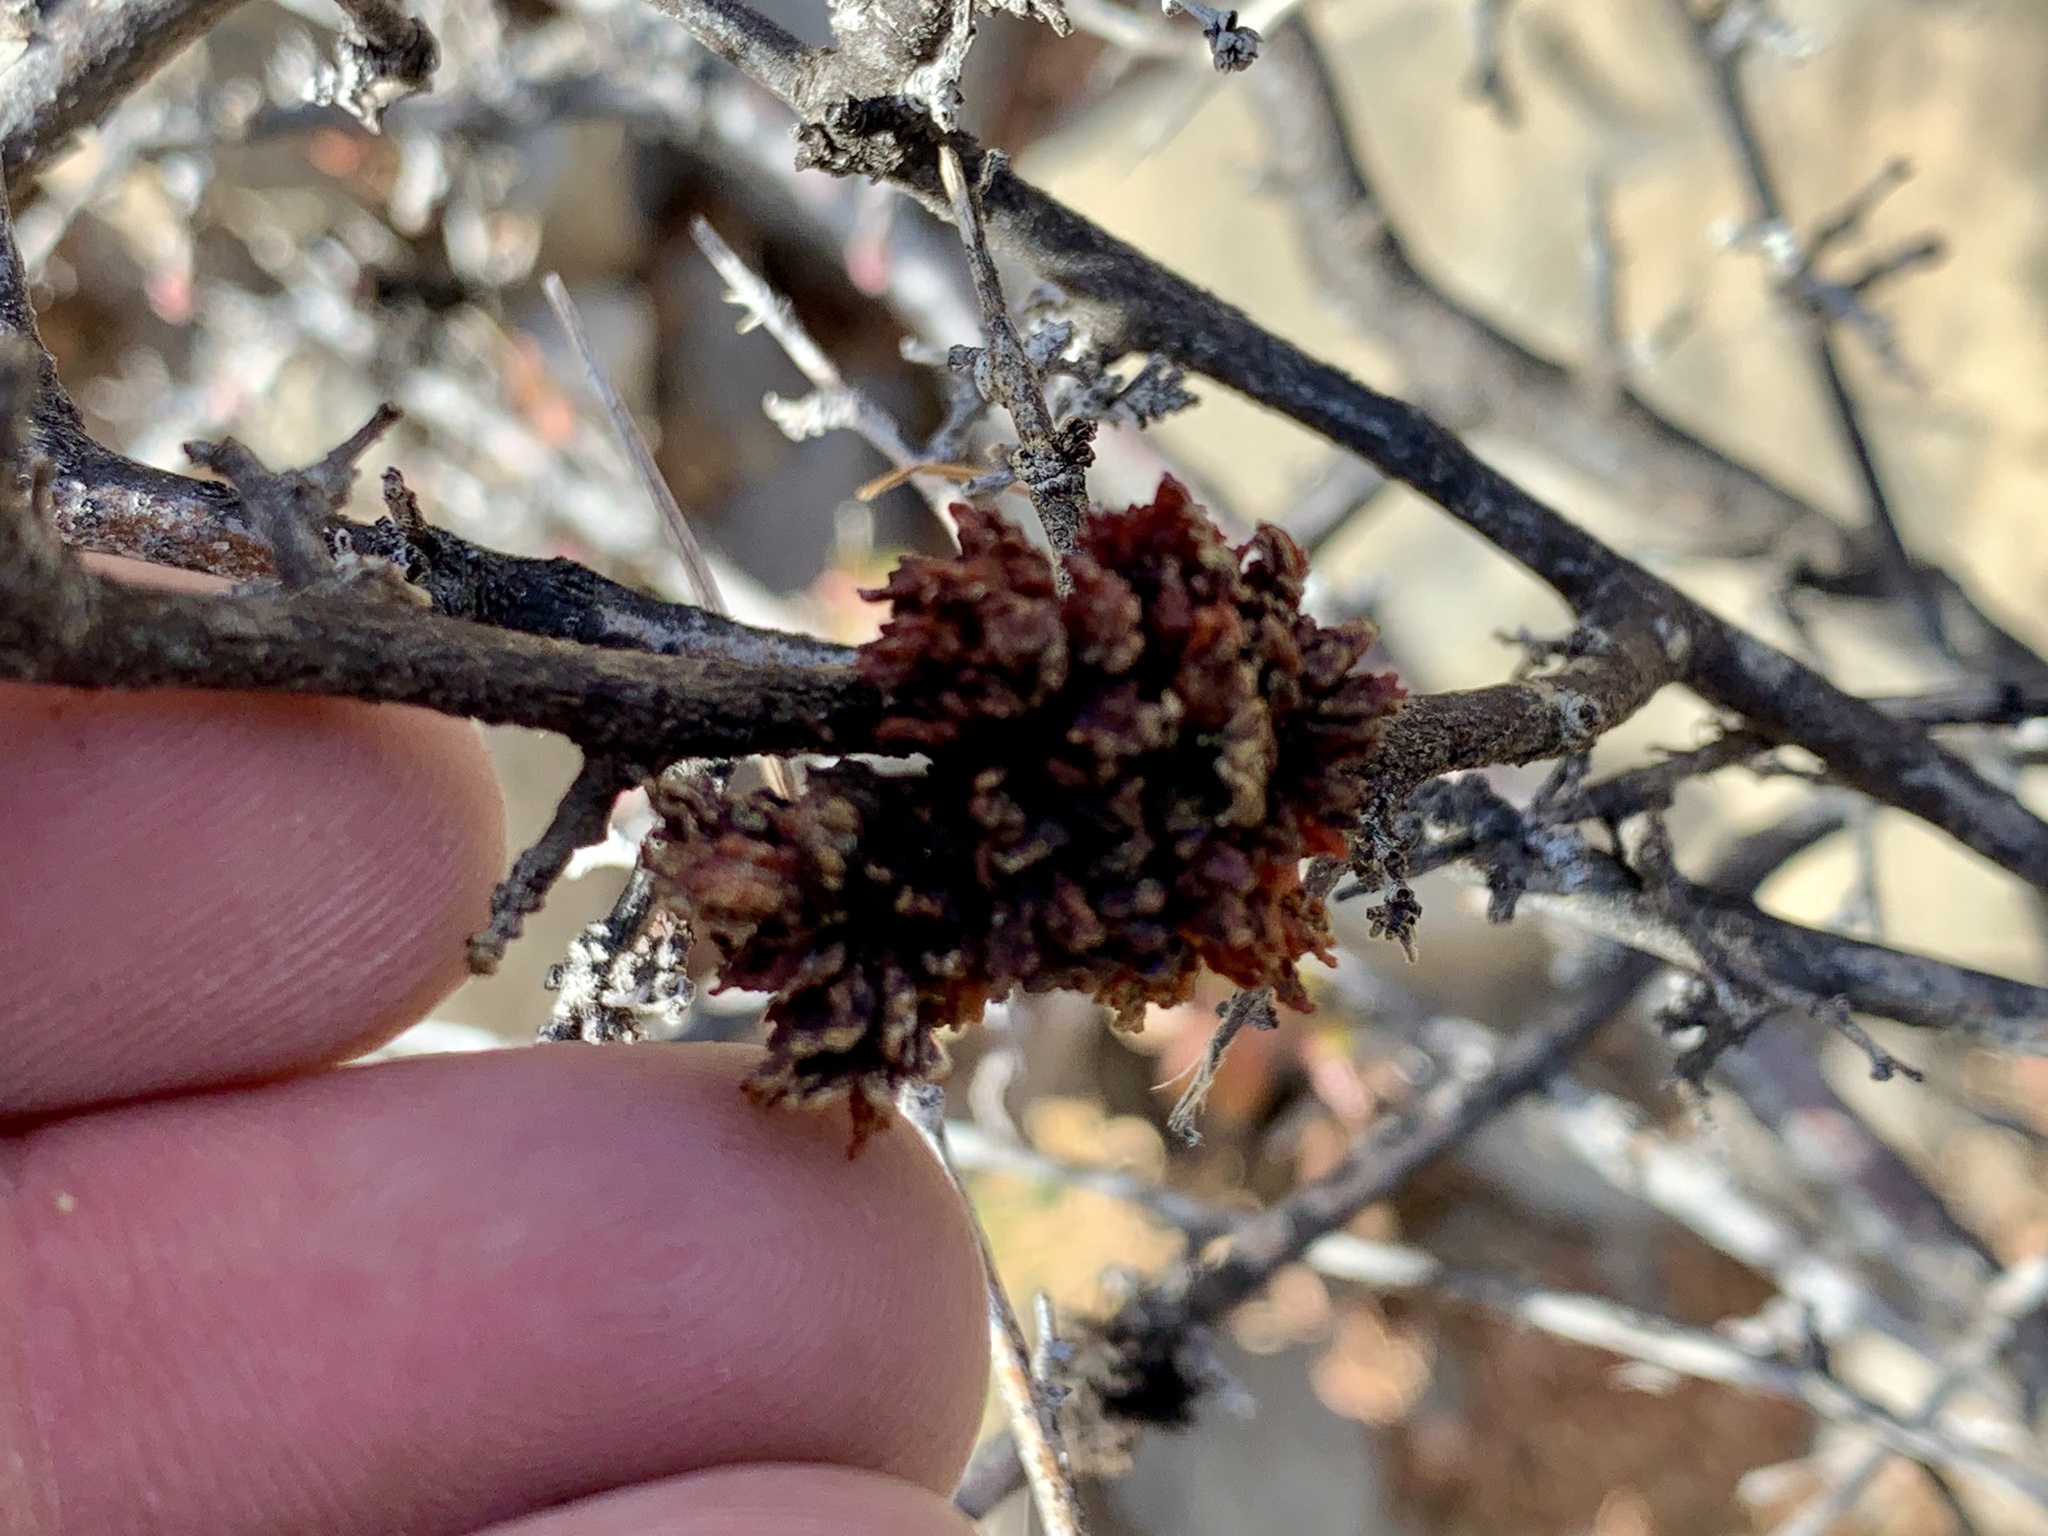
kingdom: Animalia
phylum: Arthropoda
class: Arachnida
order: Trombidiformes
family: Eriophyidae
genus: Aculops
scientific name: Aculops
